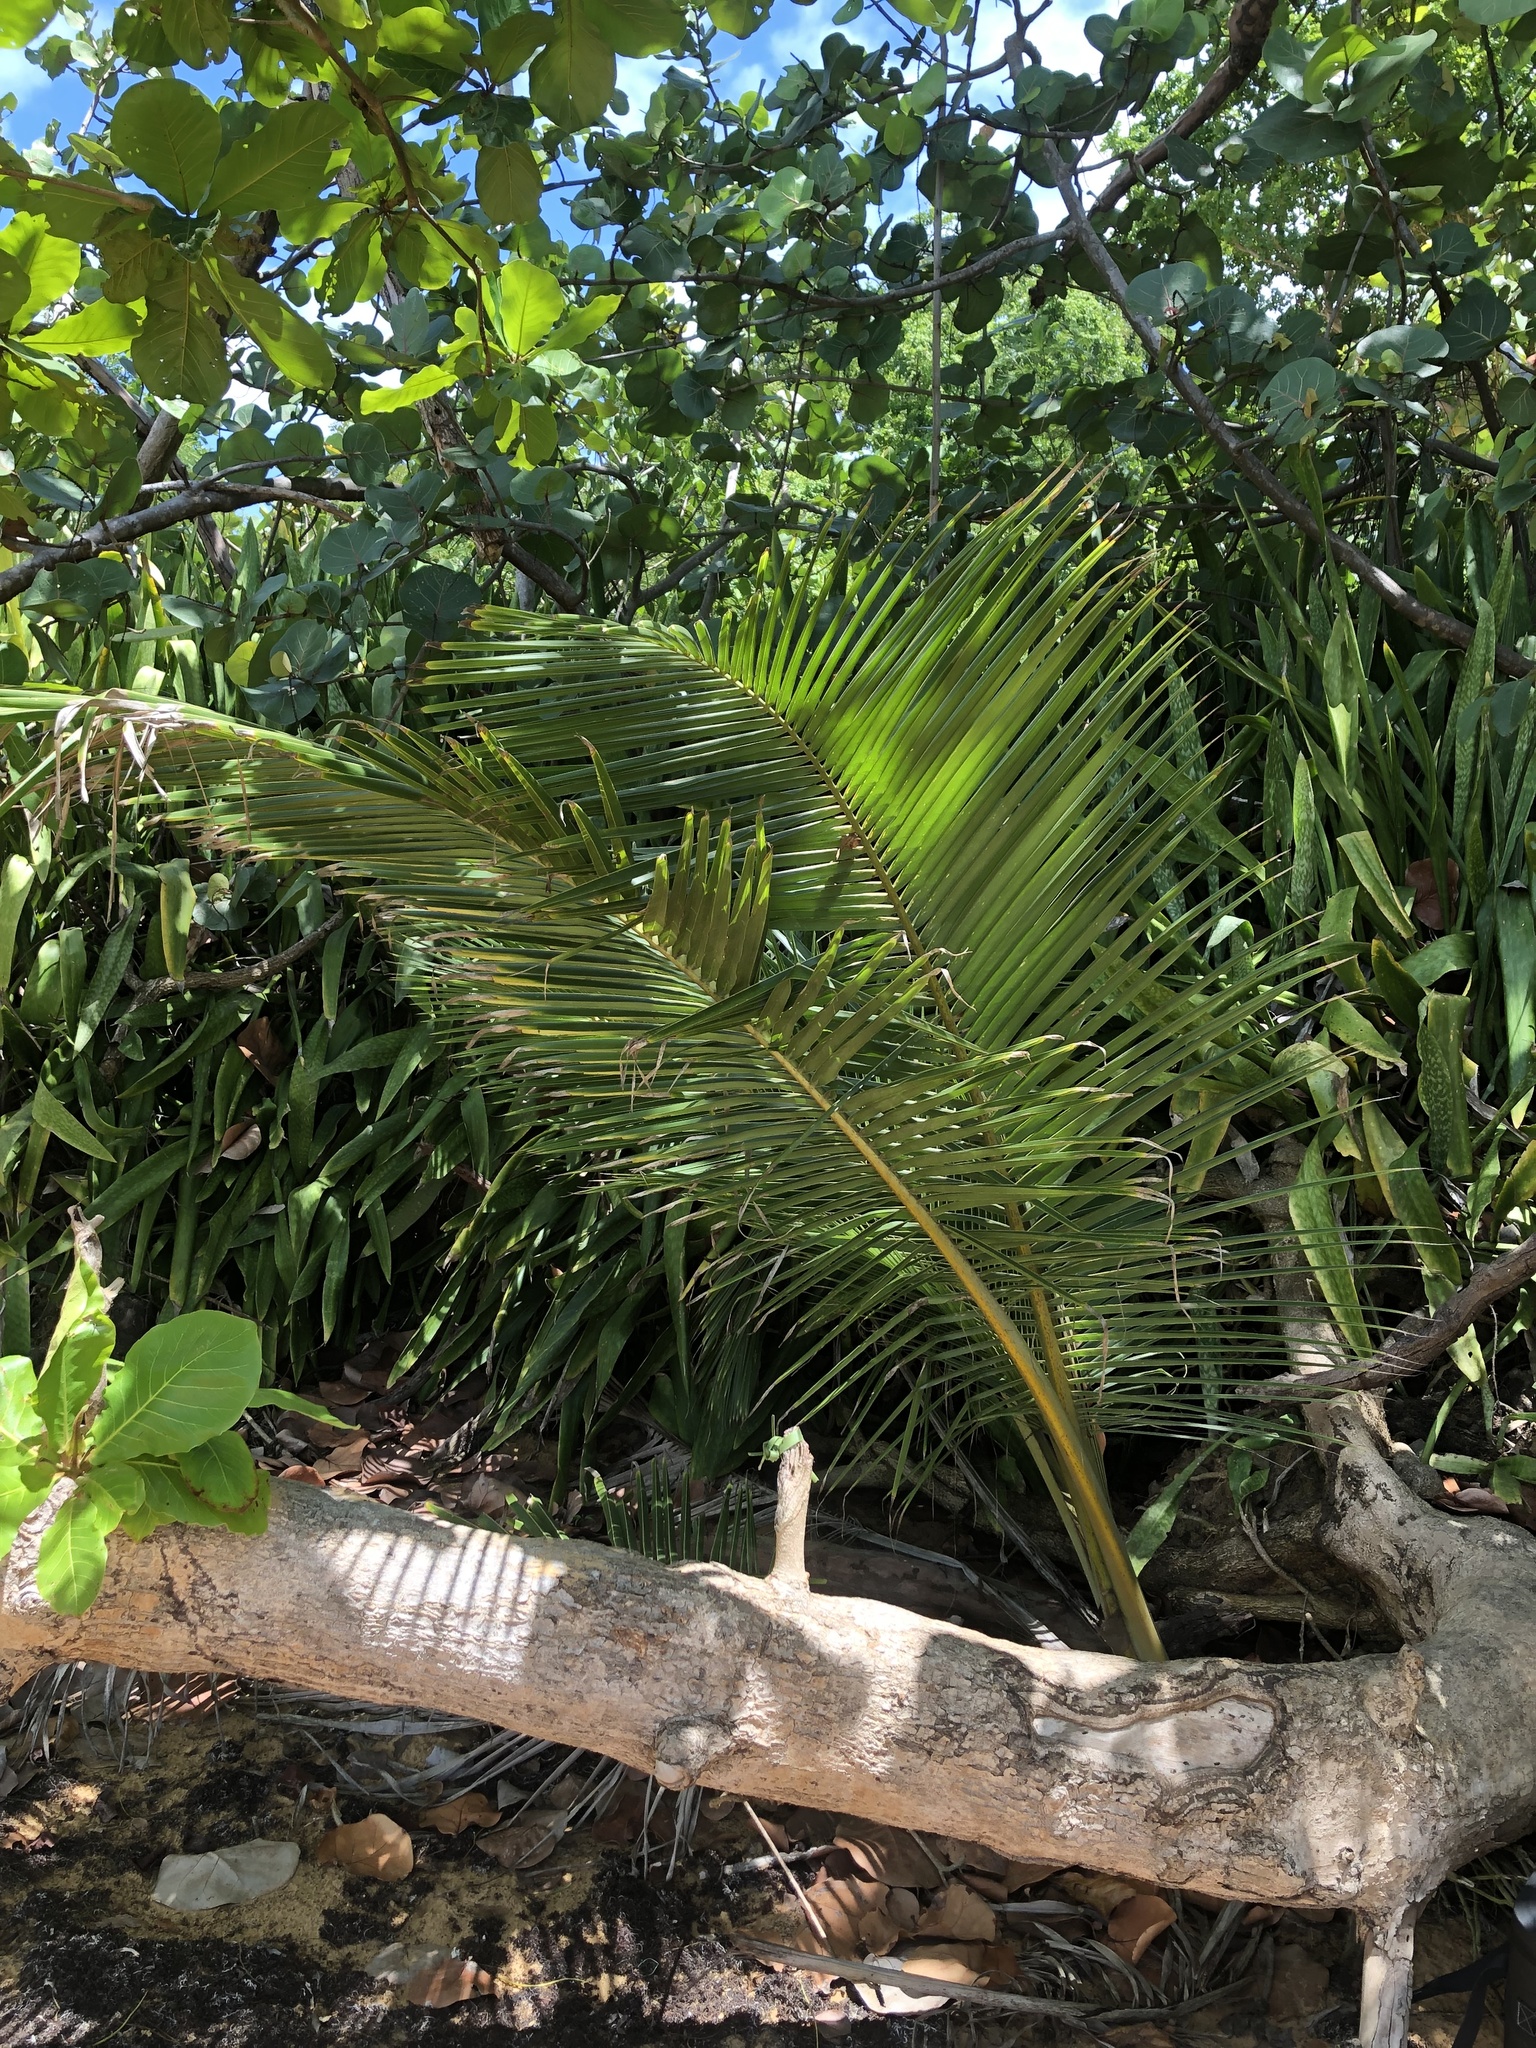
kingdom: Plantae
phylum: Tracheophyta
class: Liliopsida
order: Arecales
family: Arecaceae
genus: Cocos
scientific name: Cocos nucifera
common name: Coconut palm
